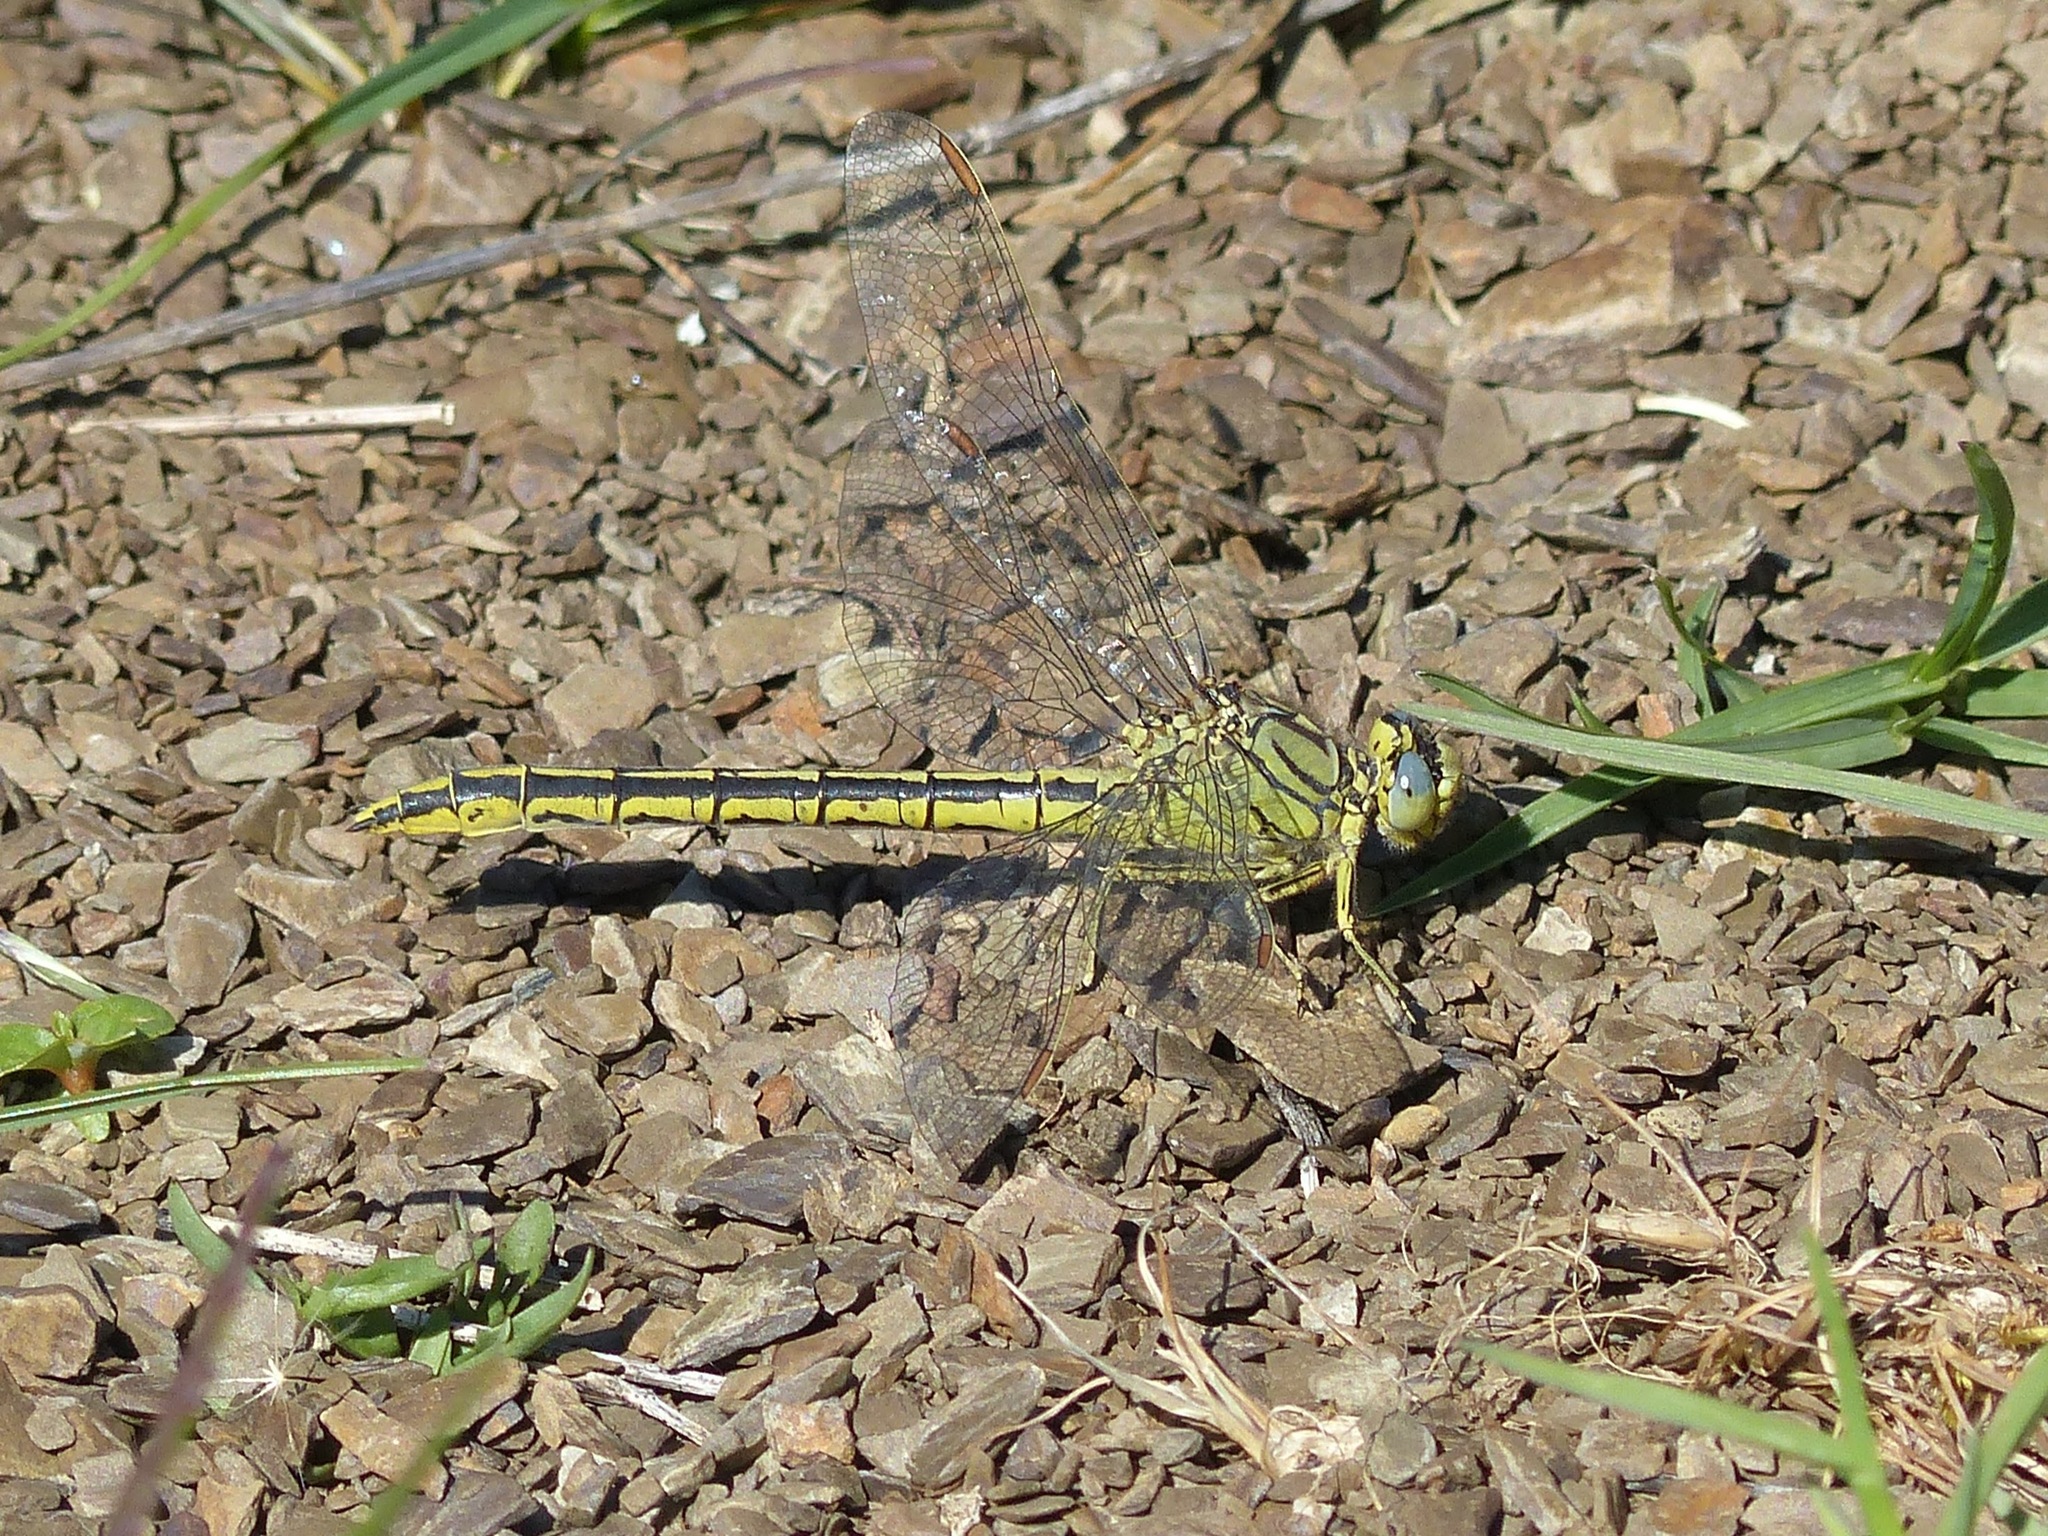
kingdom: Animalia
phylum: Arthropoda
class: Insecta
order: Odonata
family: Gomphidae
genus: Gomphus
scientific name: Gomphus pulchellus
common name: Western clubtail
